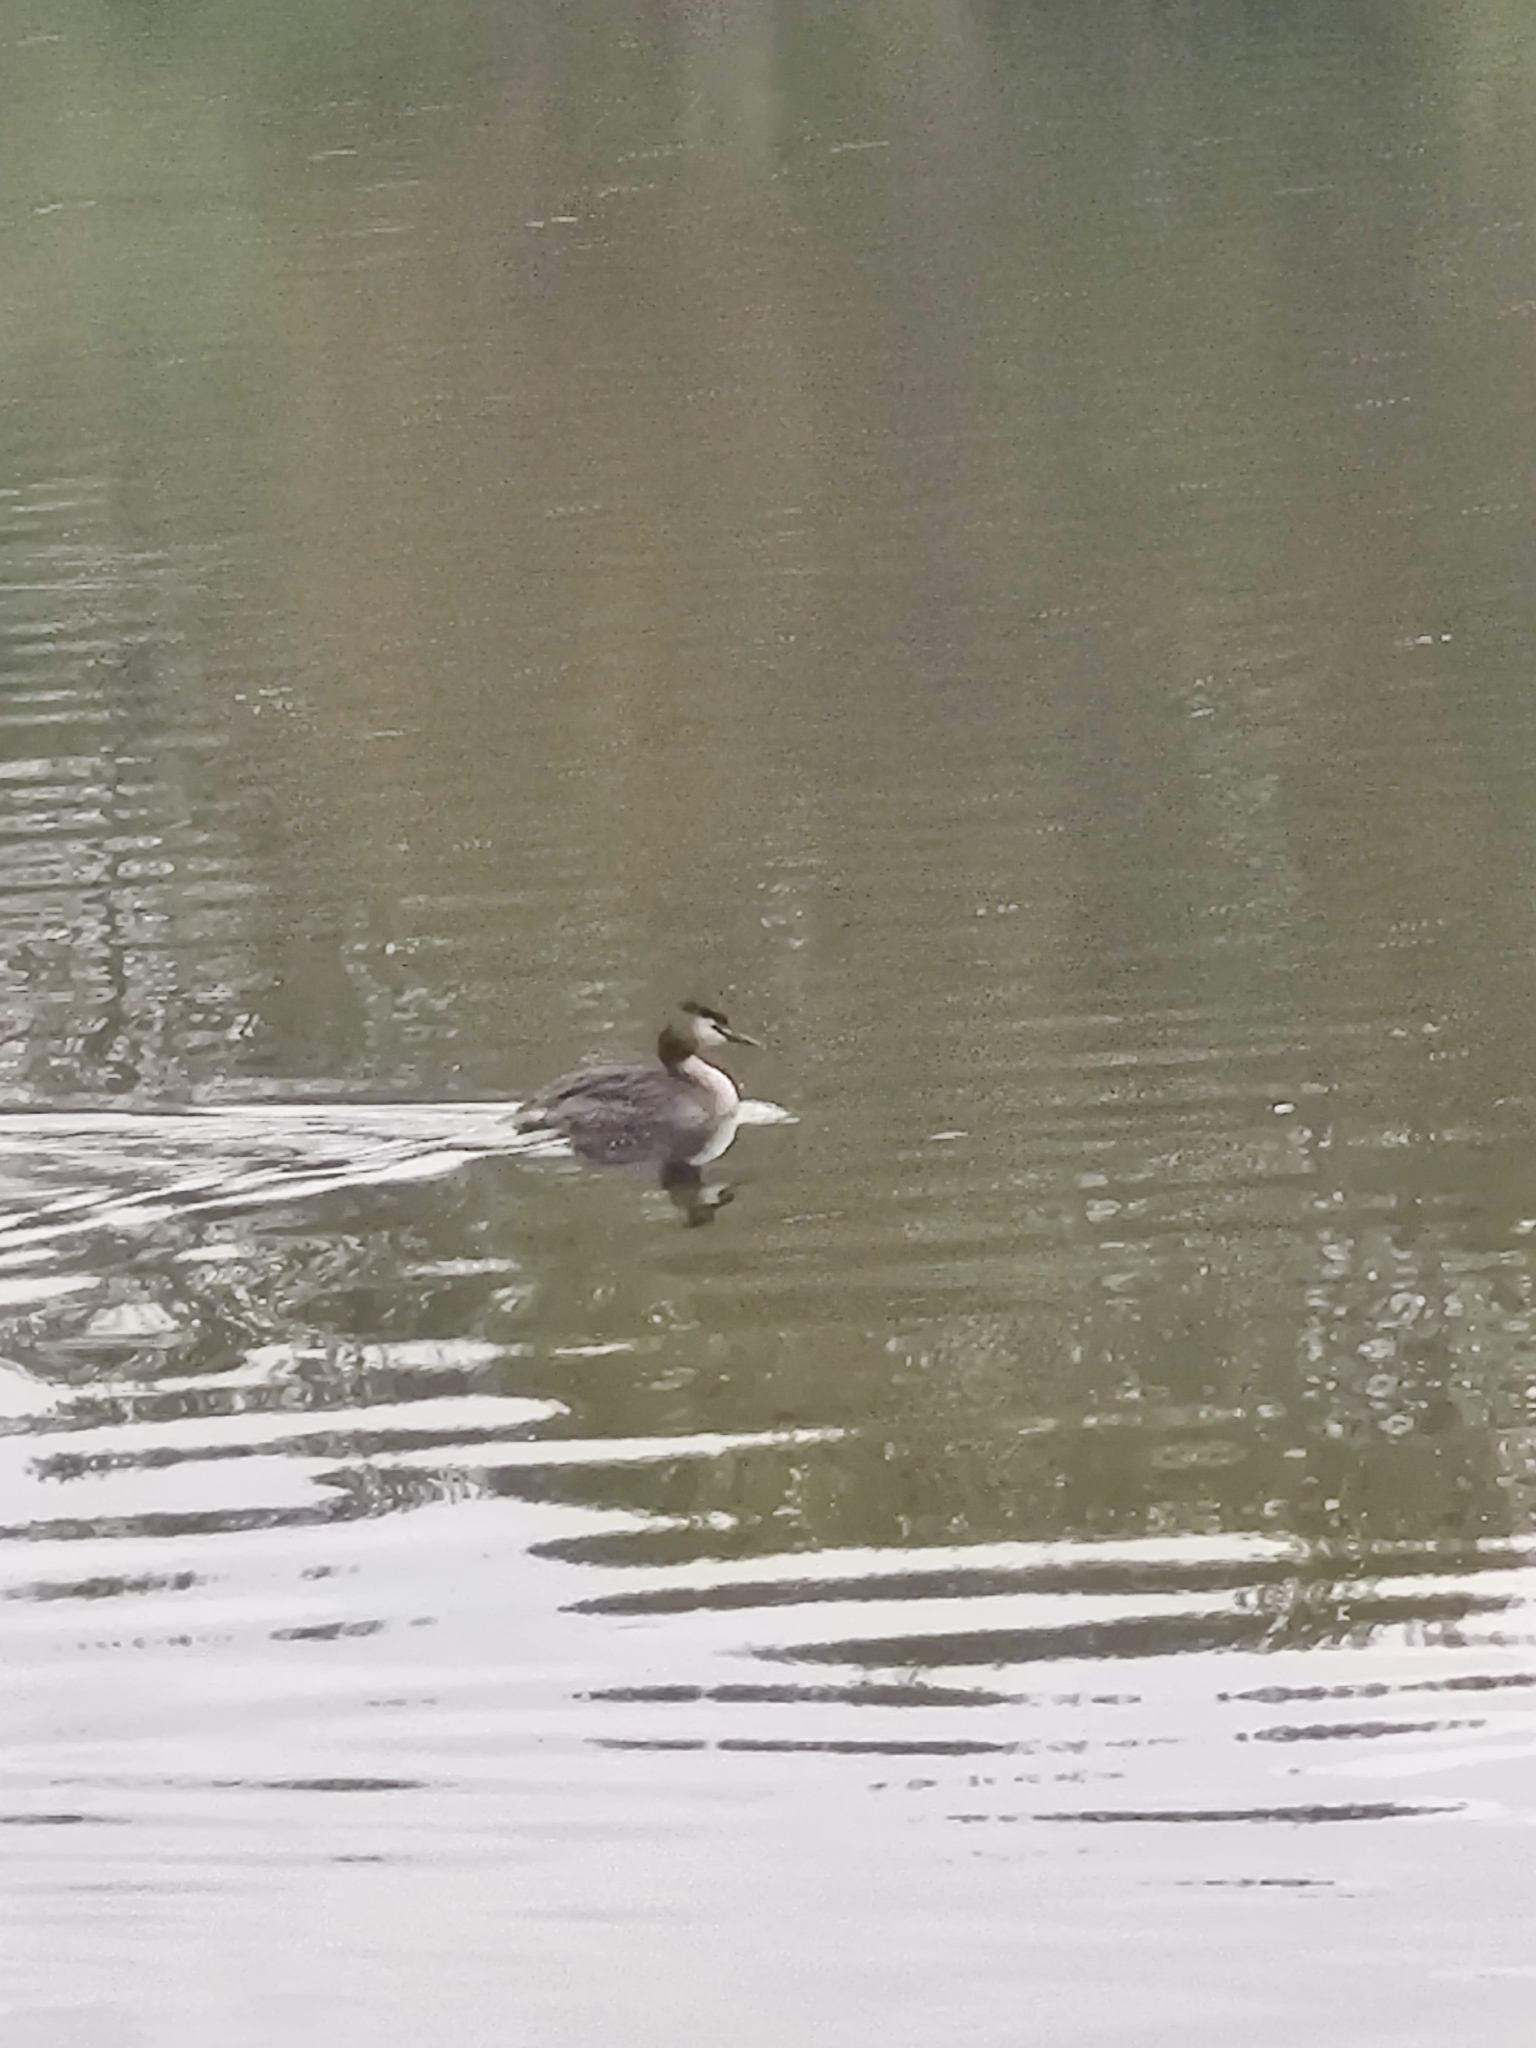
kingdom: Animalia
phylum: Chordata
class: Aves
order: Podicipediformes
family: Podicipedidae
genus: Podiceps
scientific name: Podiceps cristatus
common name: Great crested grebe
